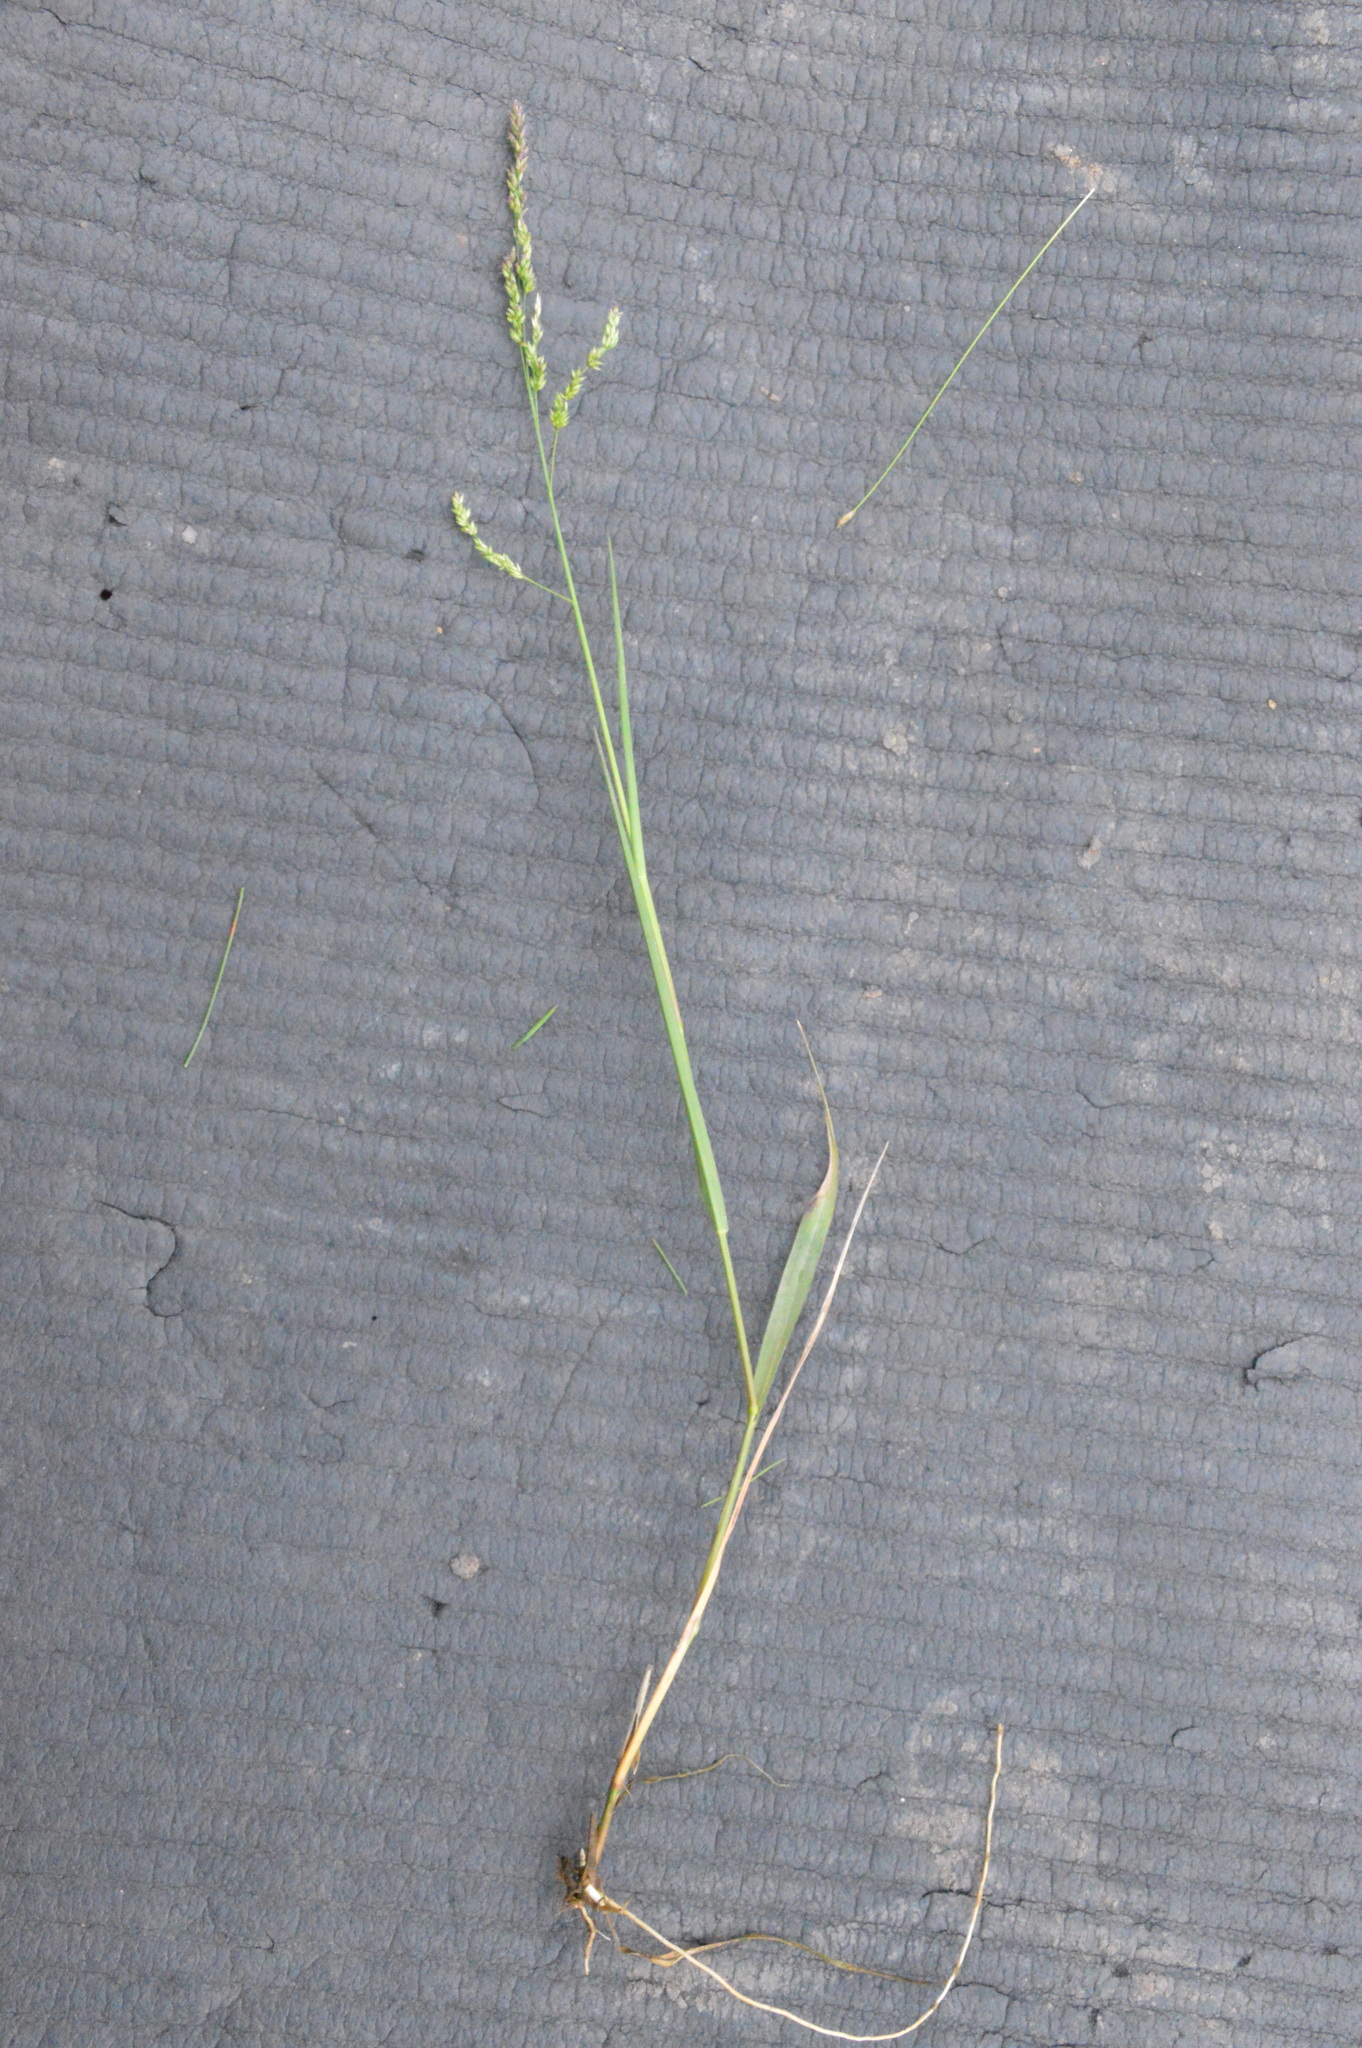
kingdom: Plantae
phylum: Tracheophyta
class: Liliopsida
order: Poales
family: Poaceae
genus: Steinchisma
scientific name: Steinchisma hians
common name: Gaping panic grass
